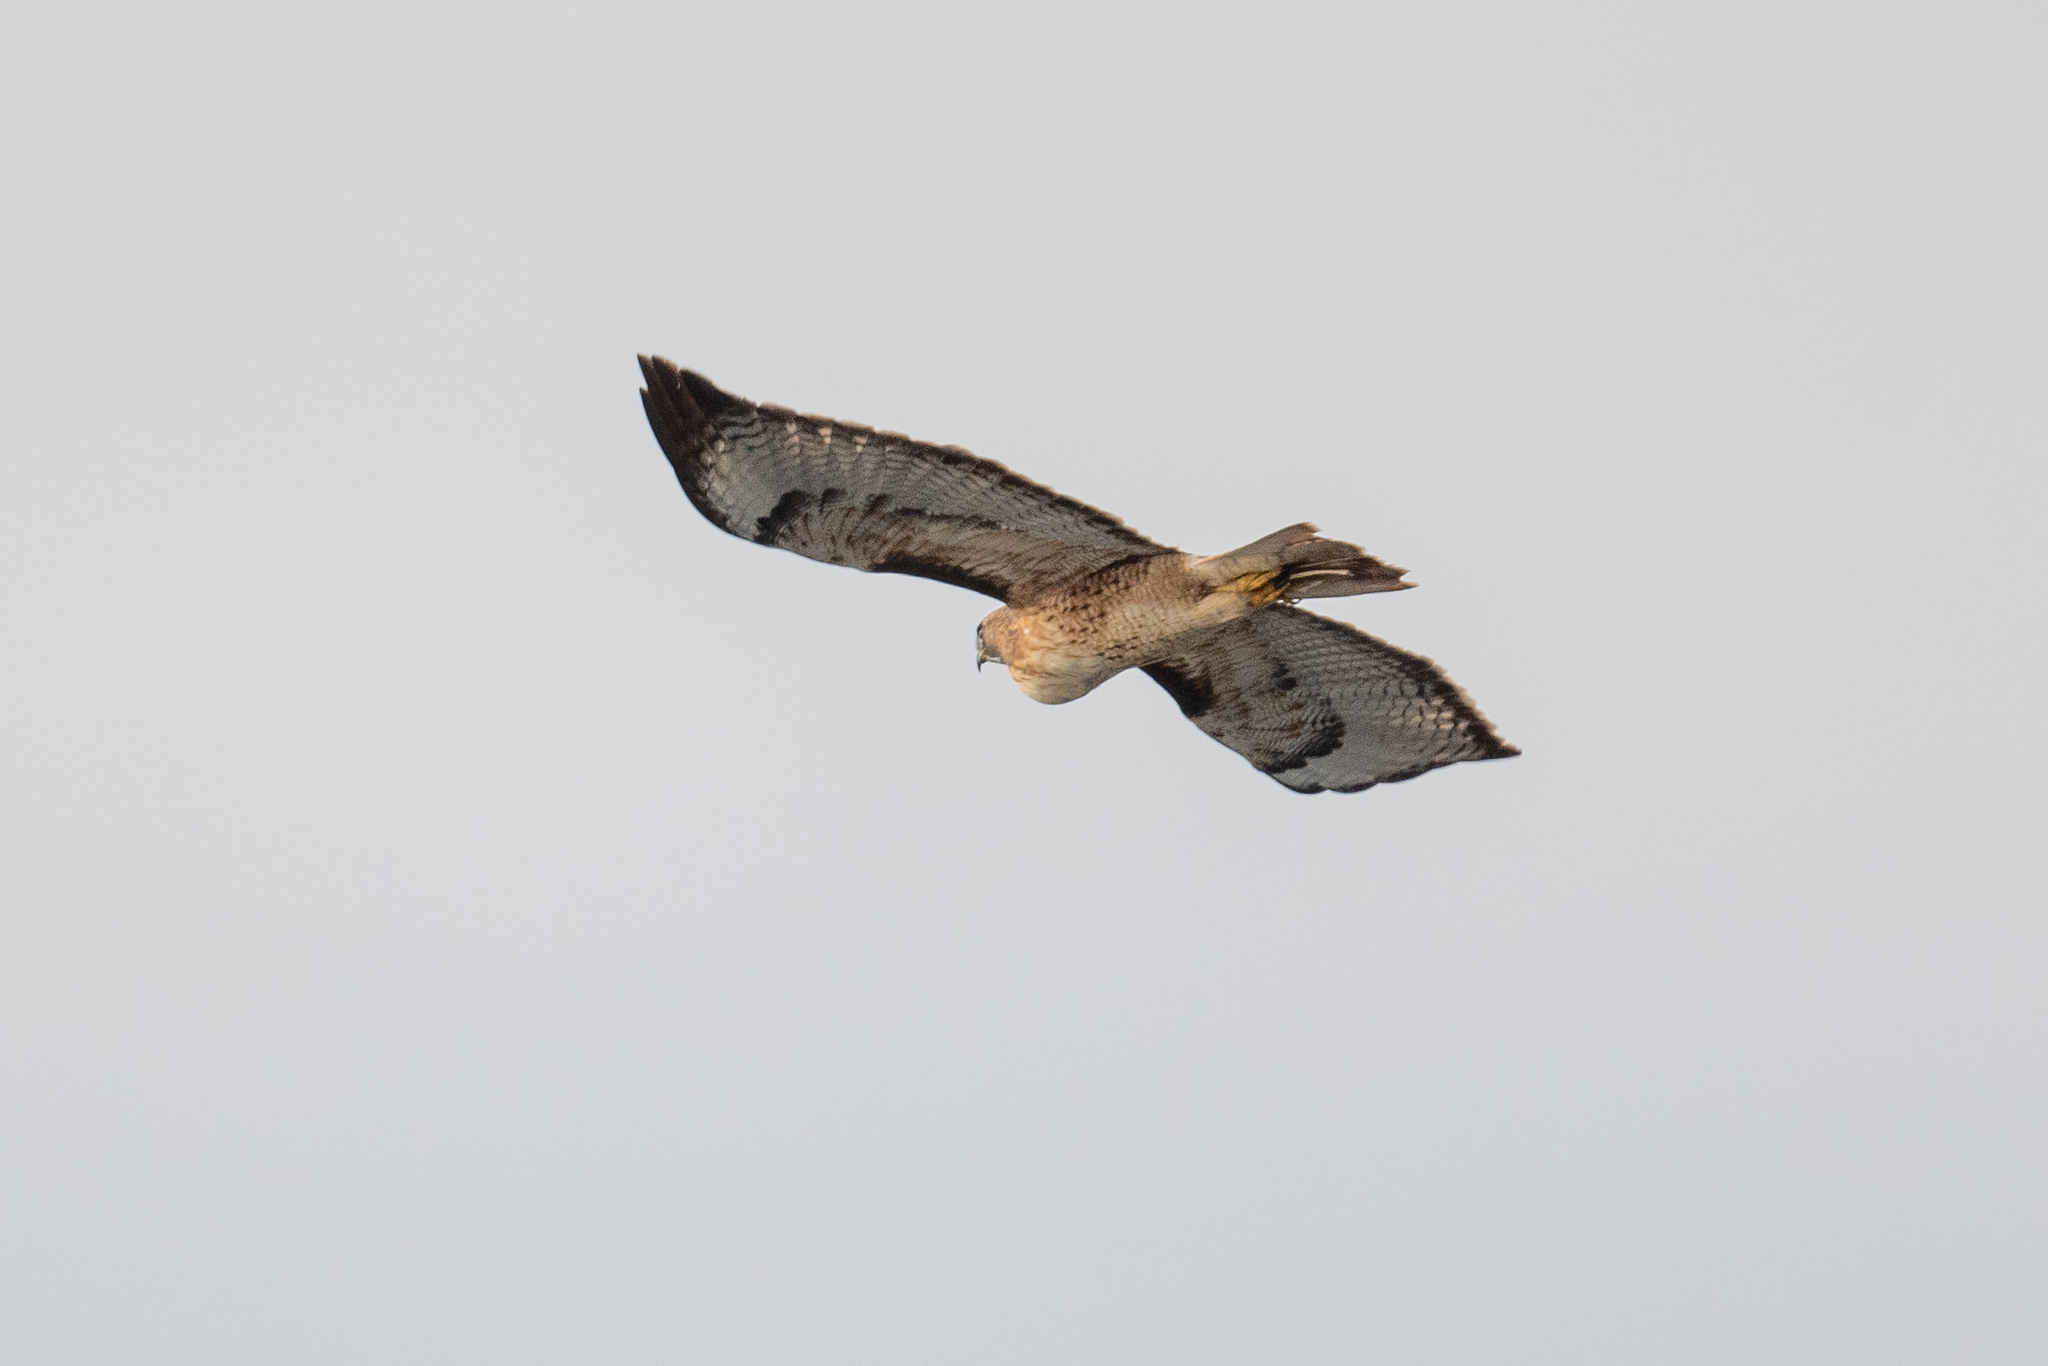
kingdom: Animalia
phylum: Chordata
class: Aves
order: Accipitriformes
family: Accipitridae
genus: Buteo
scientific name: Buteo jamaicensis
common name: Red-tailed hawk
